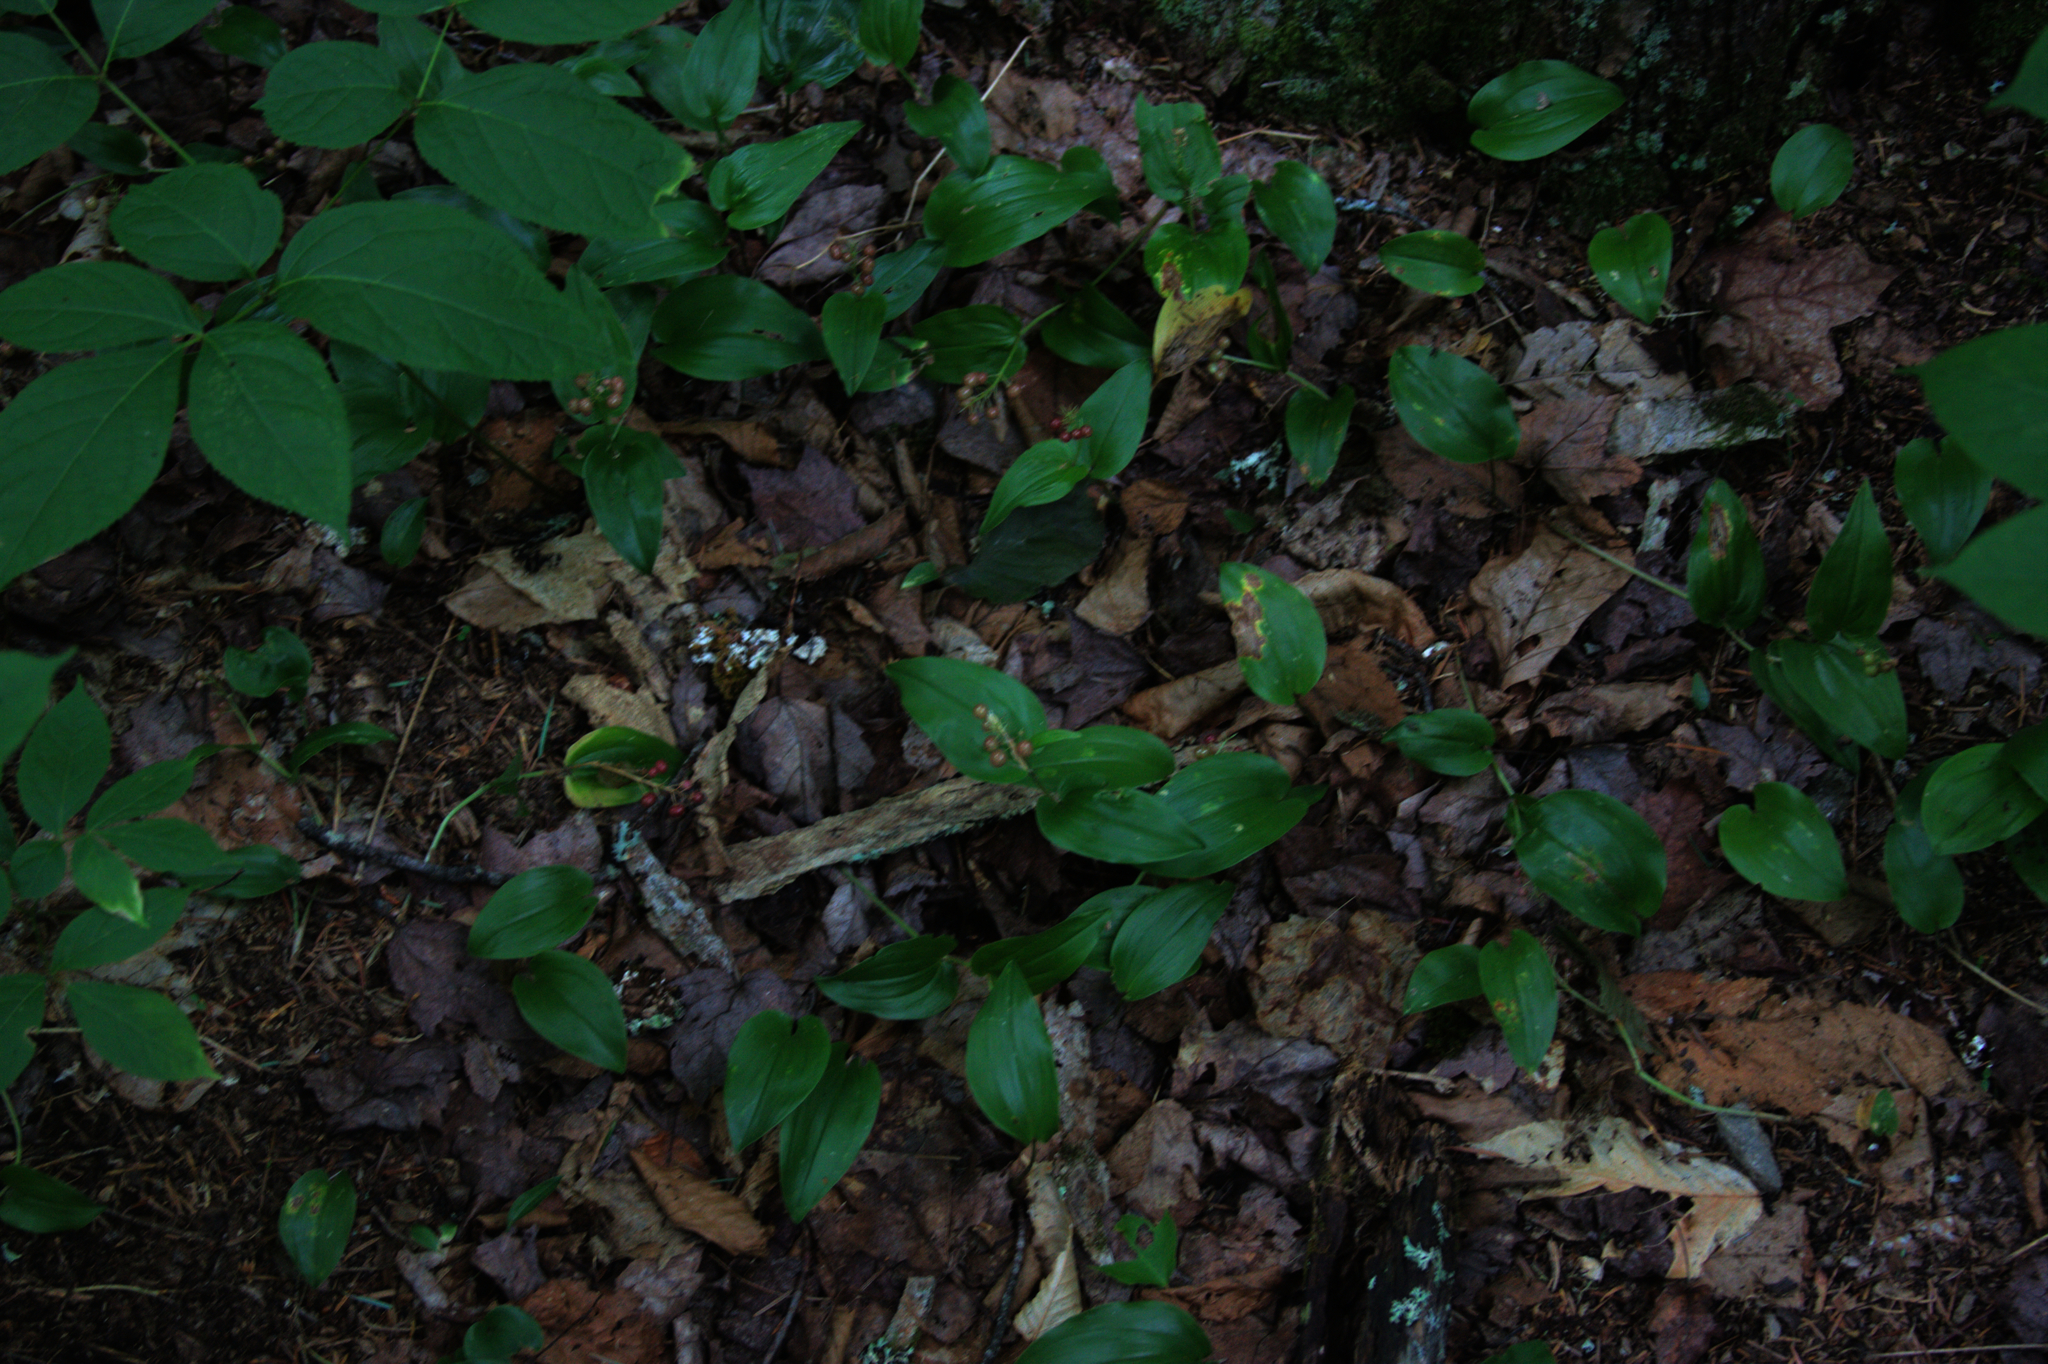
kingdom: Plantae
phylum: Tracheophyta
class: Liliopsida
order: Asparagales
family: Asparagaceae
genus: Maianthemum
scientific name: Maianthemum canadense
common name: False lily-of-the-valley
